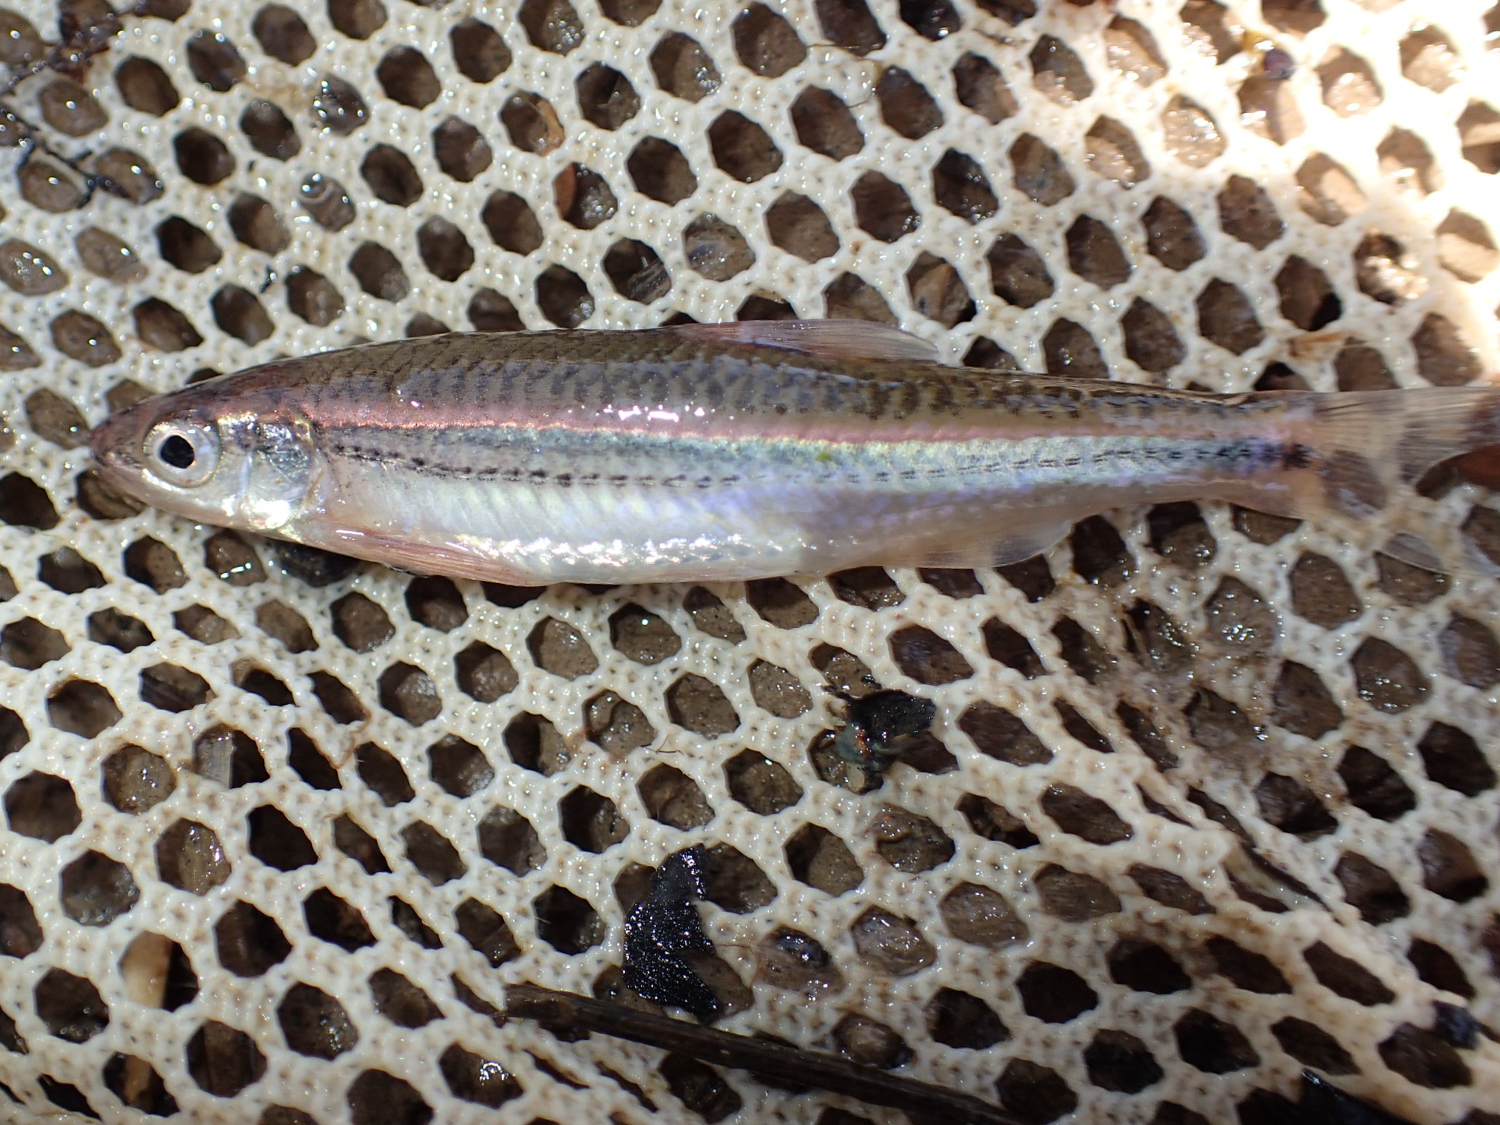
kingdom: Animalia
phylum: Chordata
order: Cypriniformes
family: Cyprinidae
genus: Notropis
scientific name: Notropis
